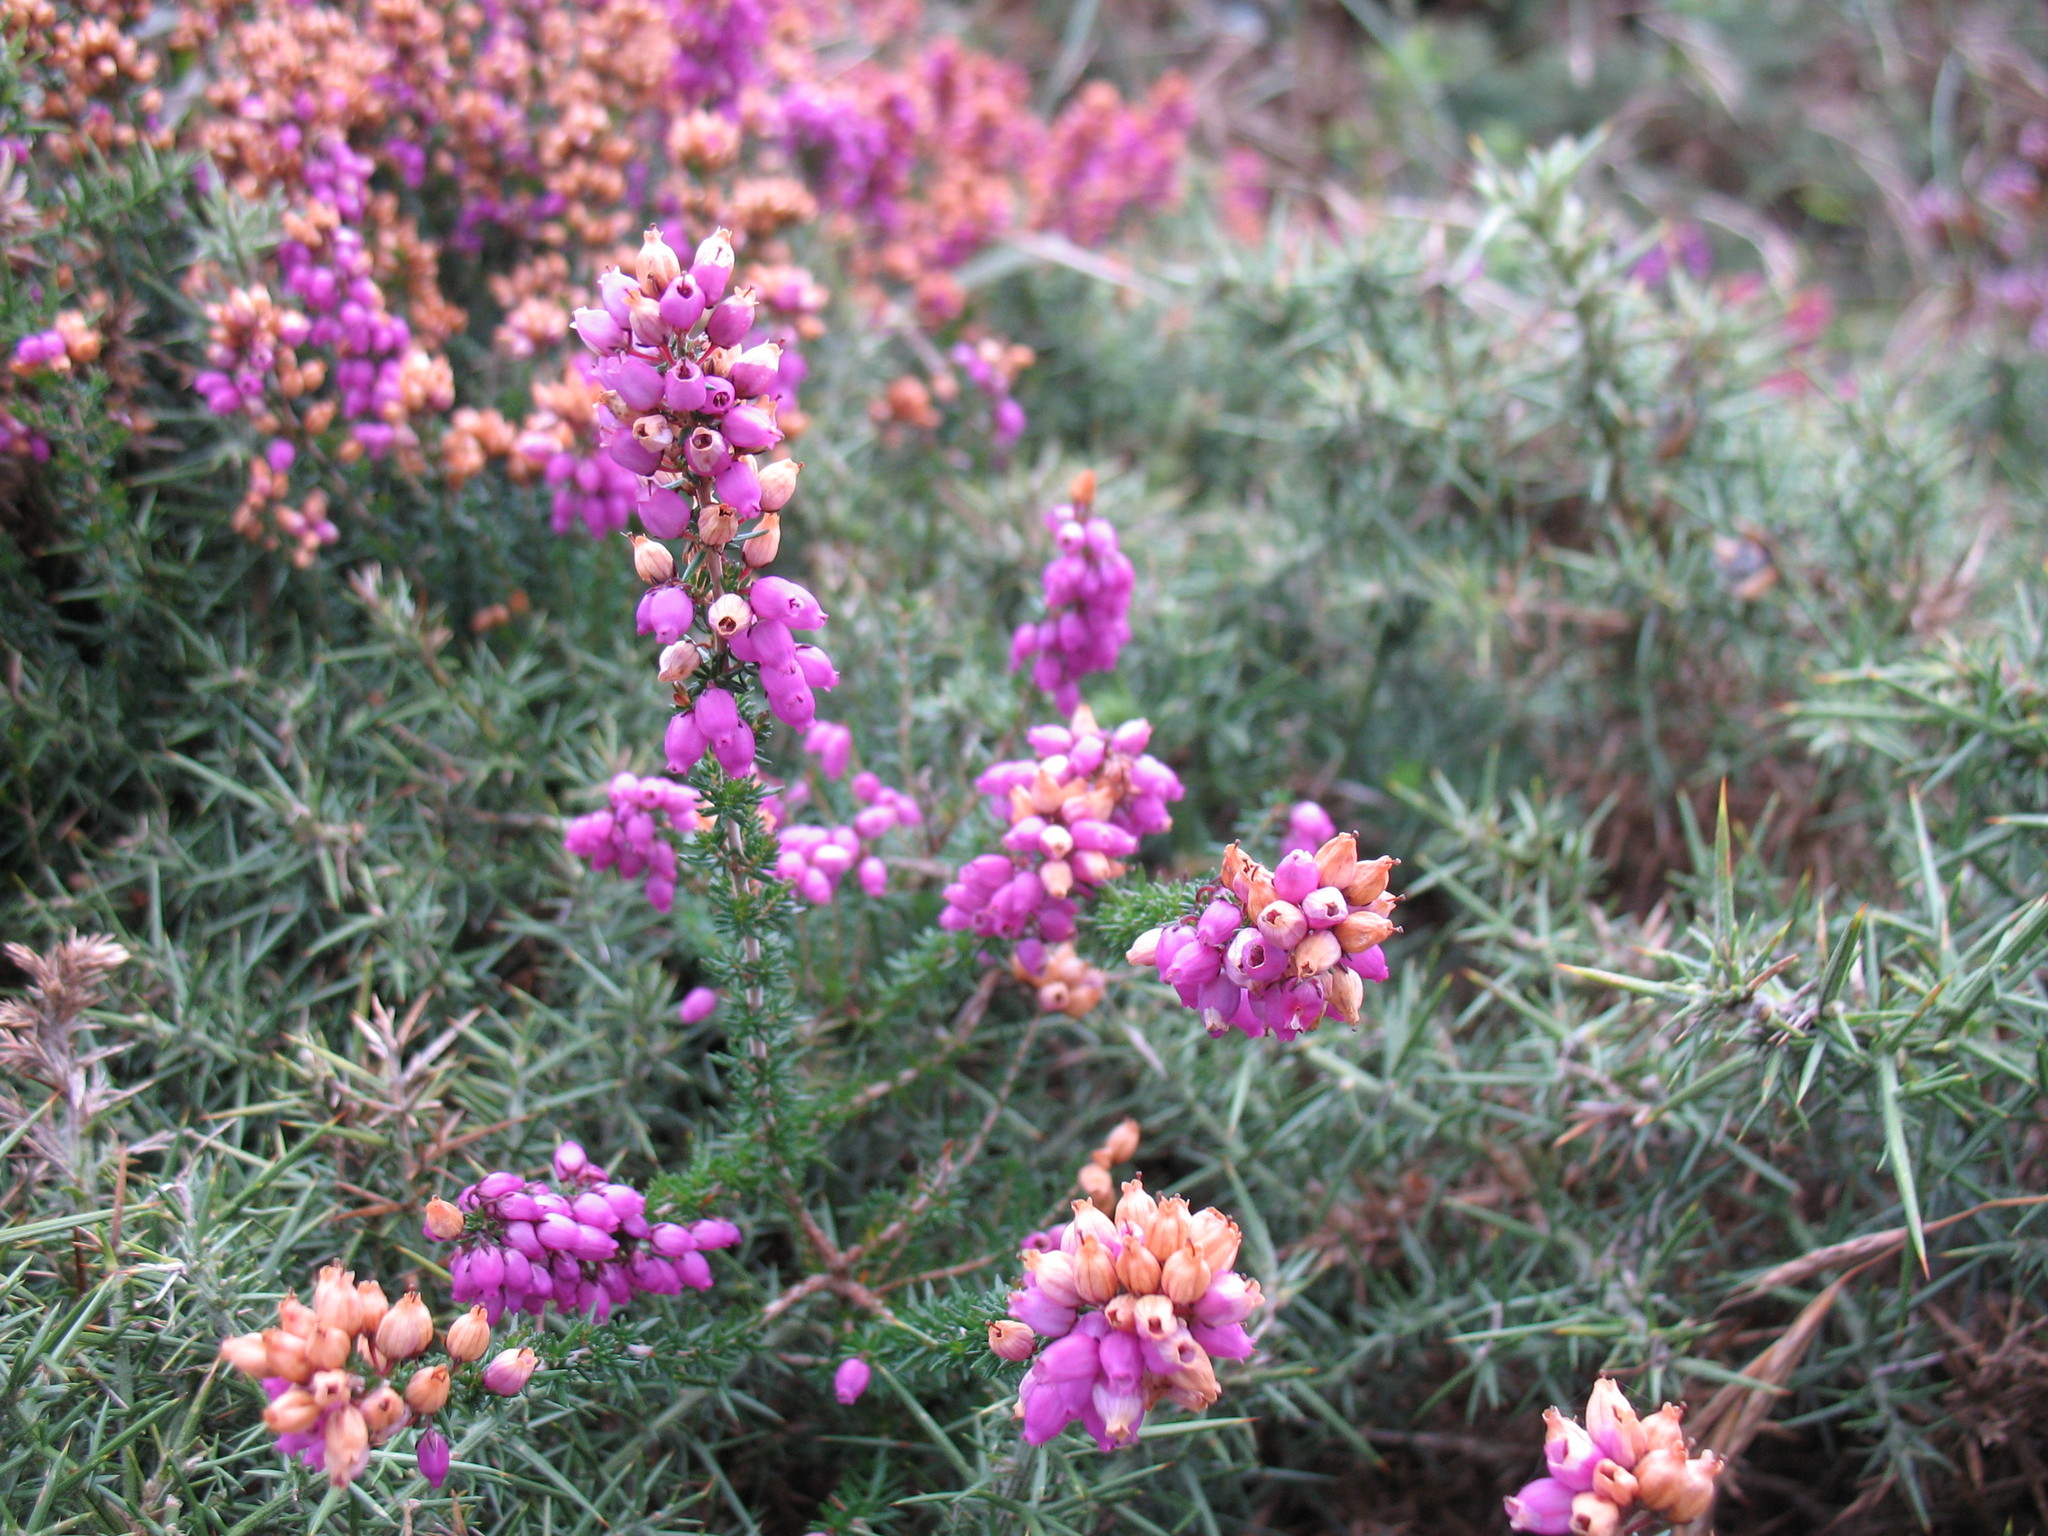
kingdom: Plantae
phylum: Tracheophyta
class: Magnoliopsida
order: Ericales
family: Ericaceae
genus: Erica
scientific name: Erica cinerea
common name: Bell heather
